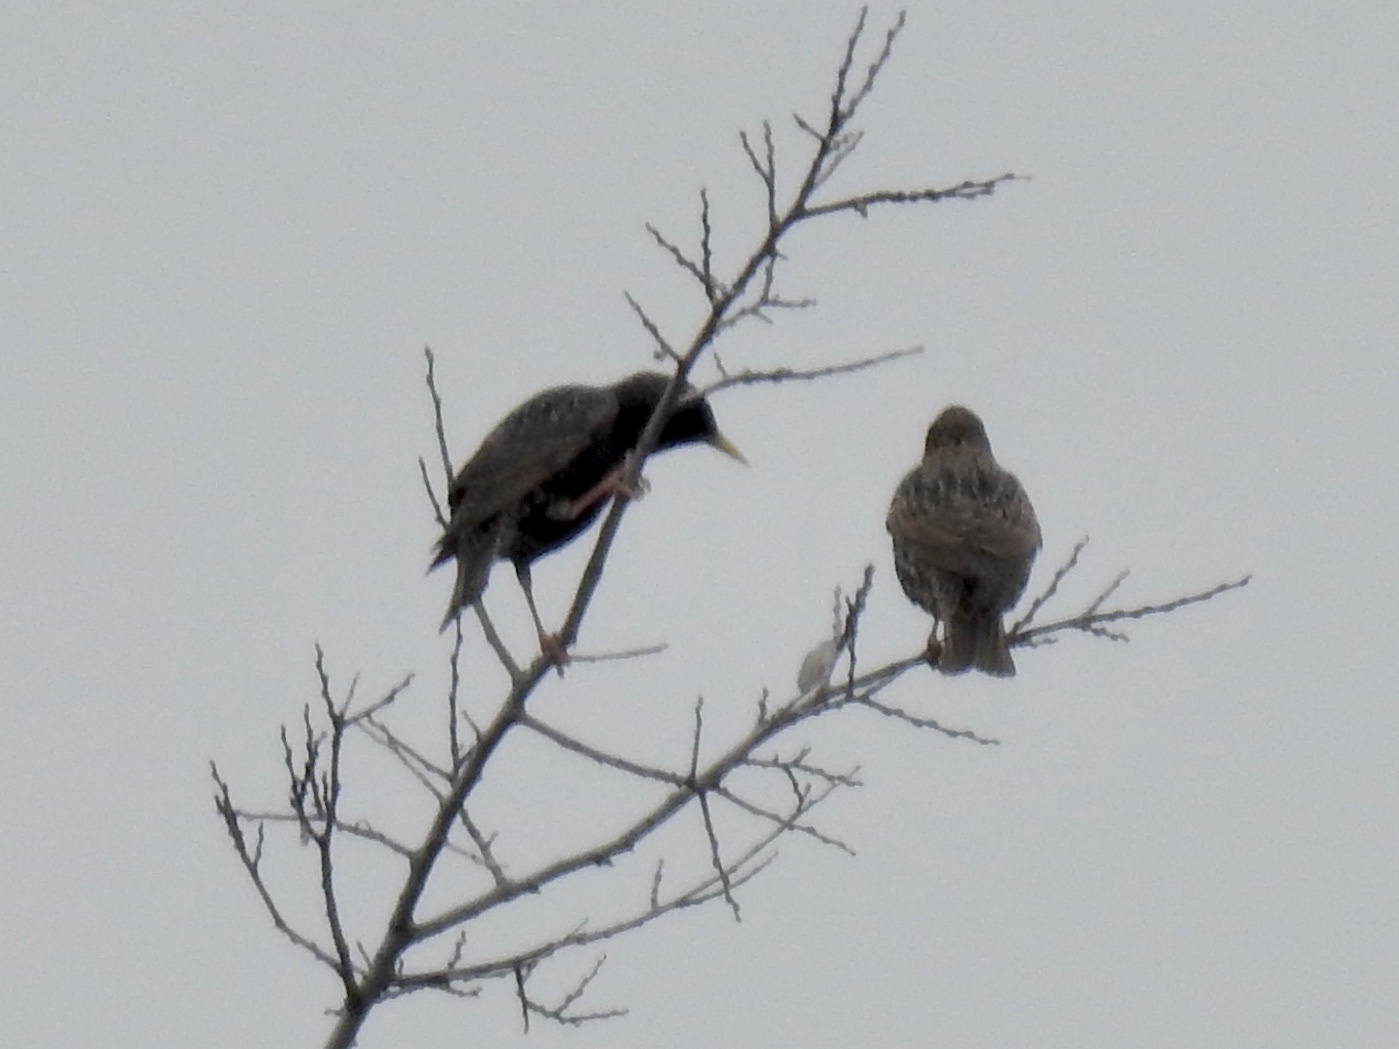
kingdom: Animalia
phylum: Chordata
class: Aves
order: Passeriformes
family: Sturnidae
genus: Sturnus
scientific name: Sturnus vulgaris
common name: Common starling
